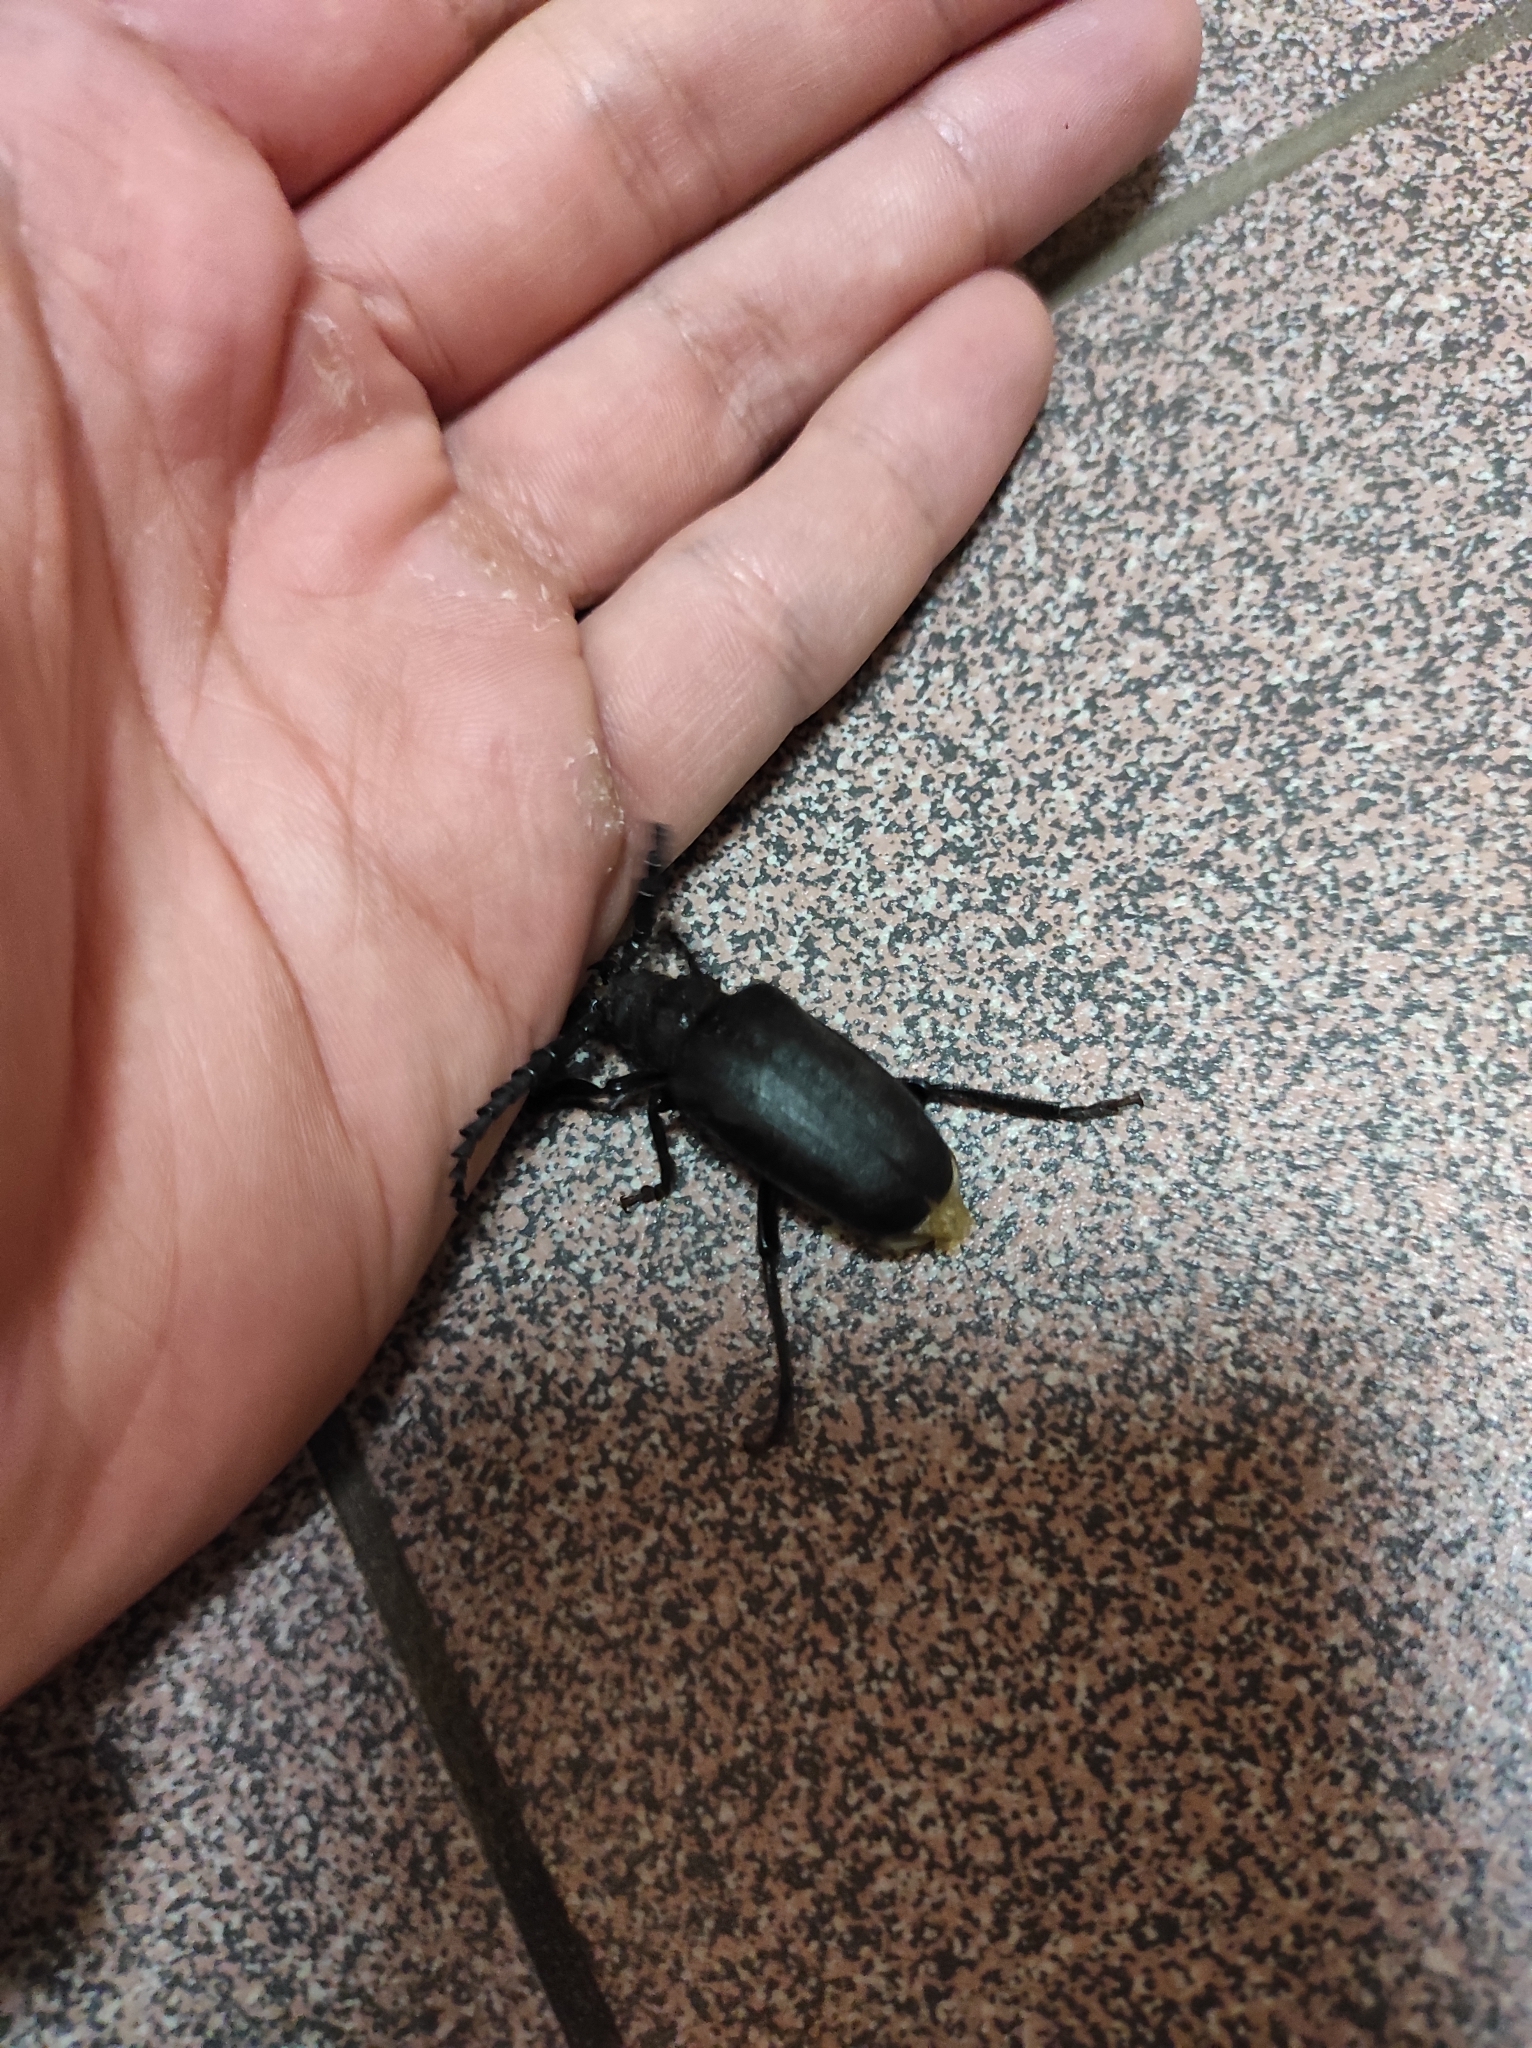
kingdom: Animalia
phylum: Arthropoda
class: Insecta
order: Coleoptera
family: Cerambycidae
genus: Prionus
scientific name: Prionus coriarius
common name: Tanner beetle
